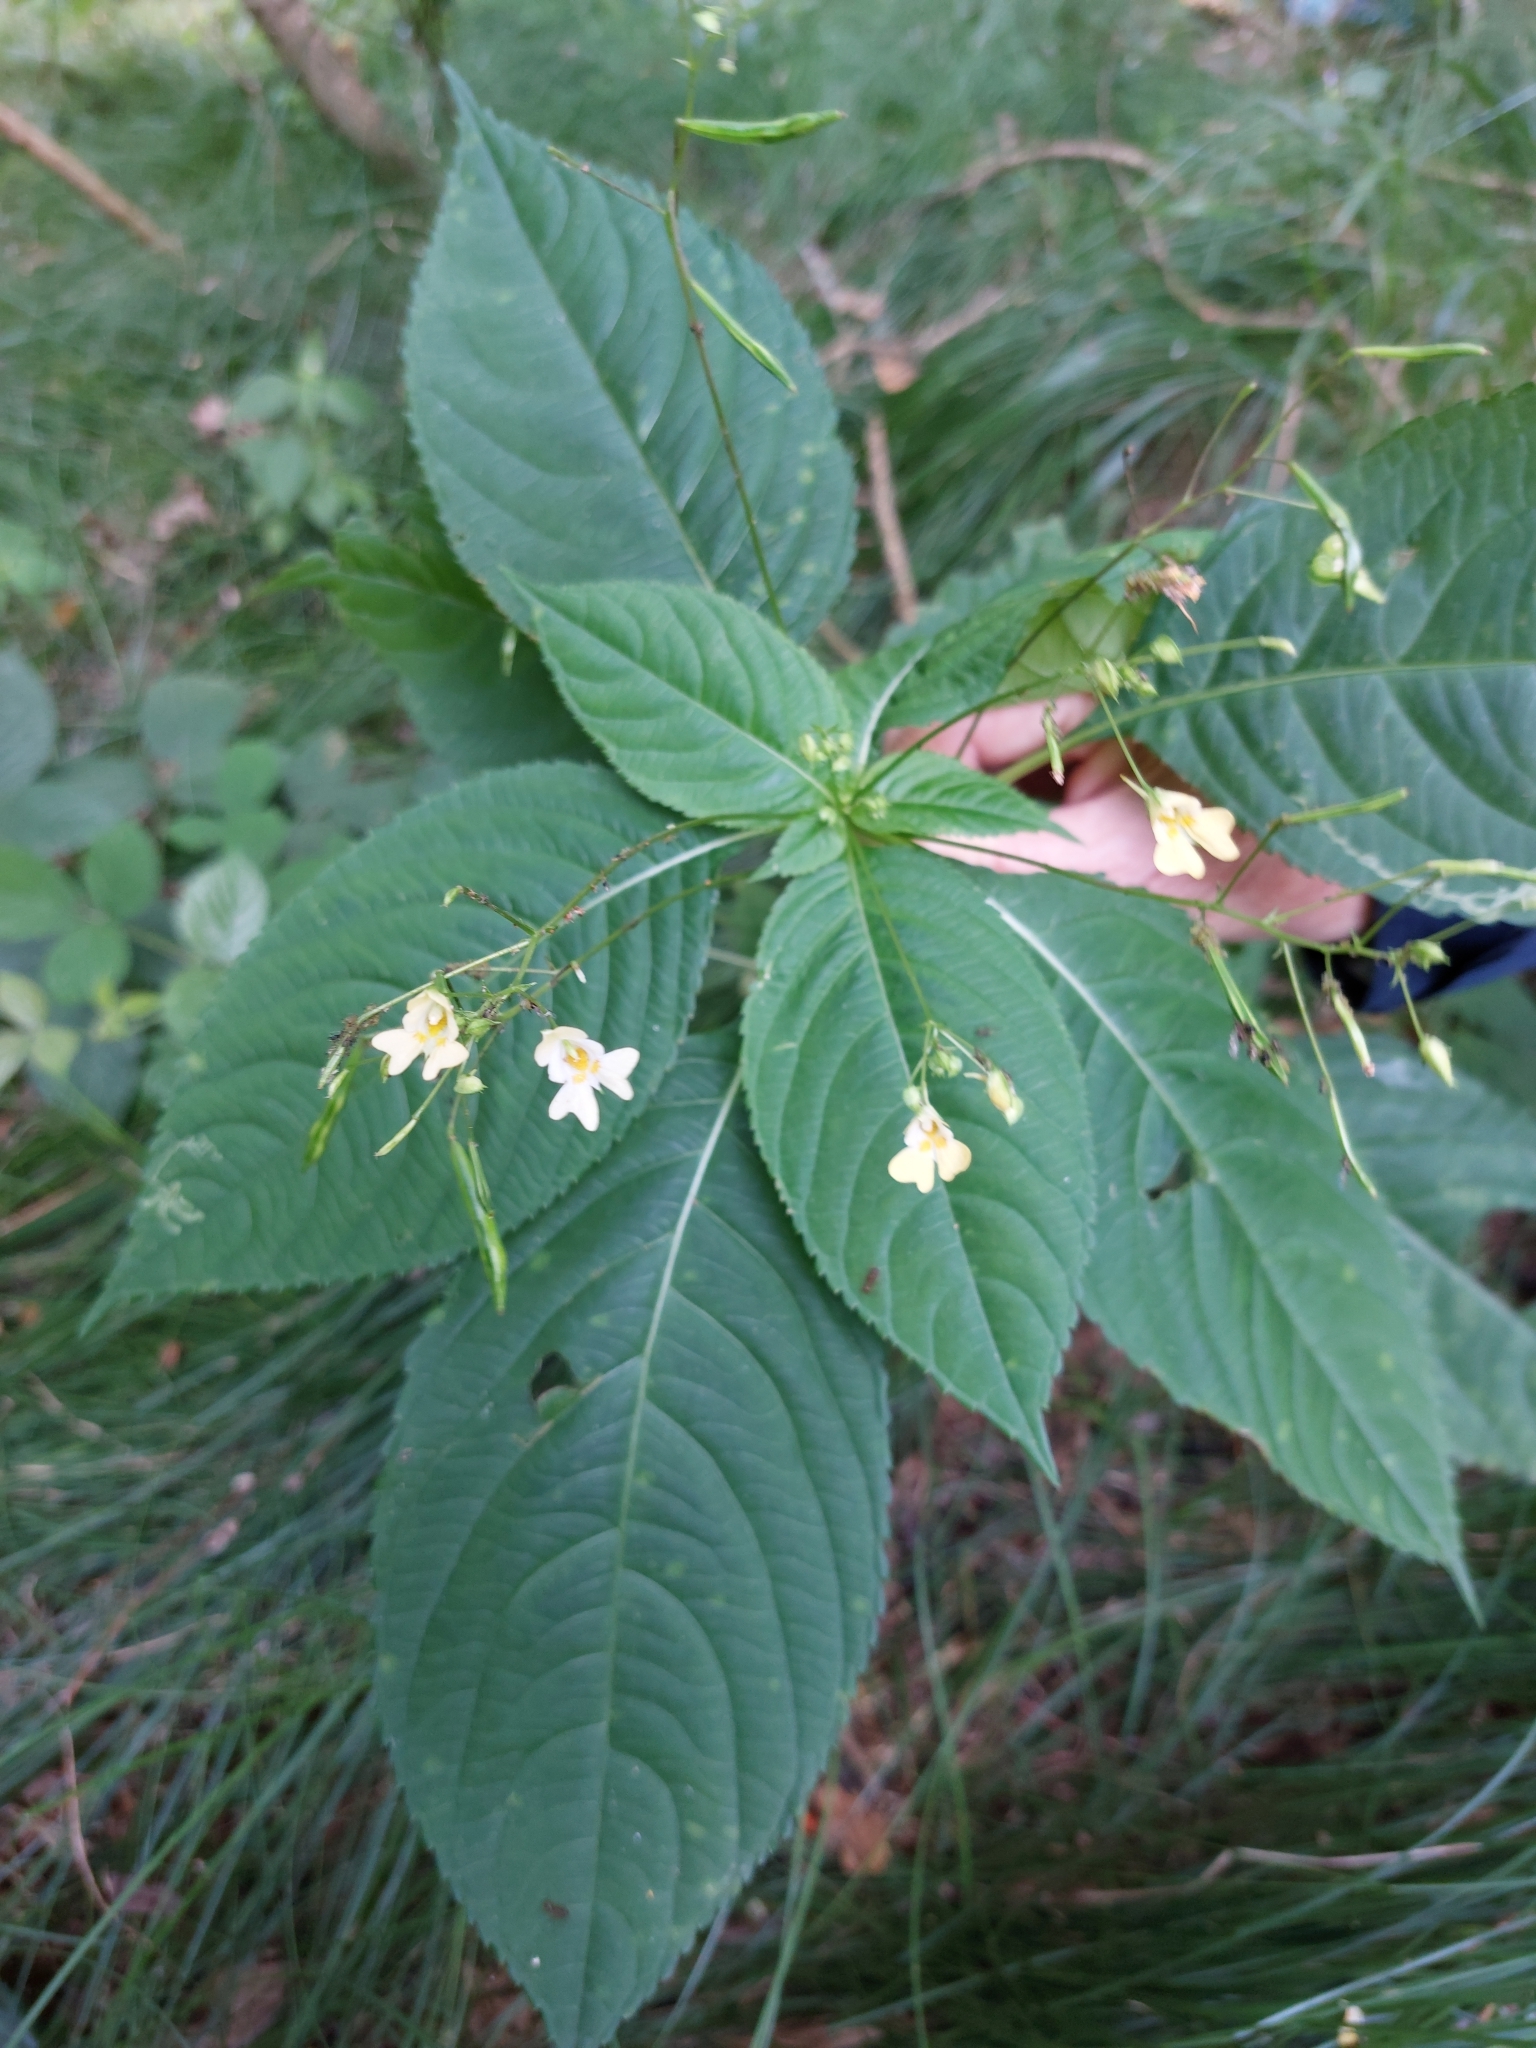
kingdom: Plantae
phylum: Tracheophyta
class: Magnoliopsida
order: Ericales
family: Balsaminaceae
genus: Impatiens
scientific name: Impatiens parviflora
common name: Small balsam
